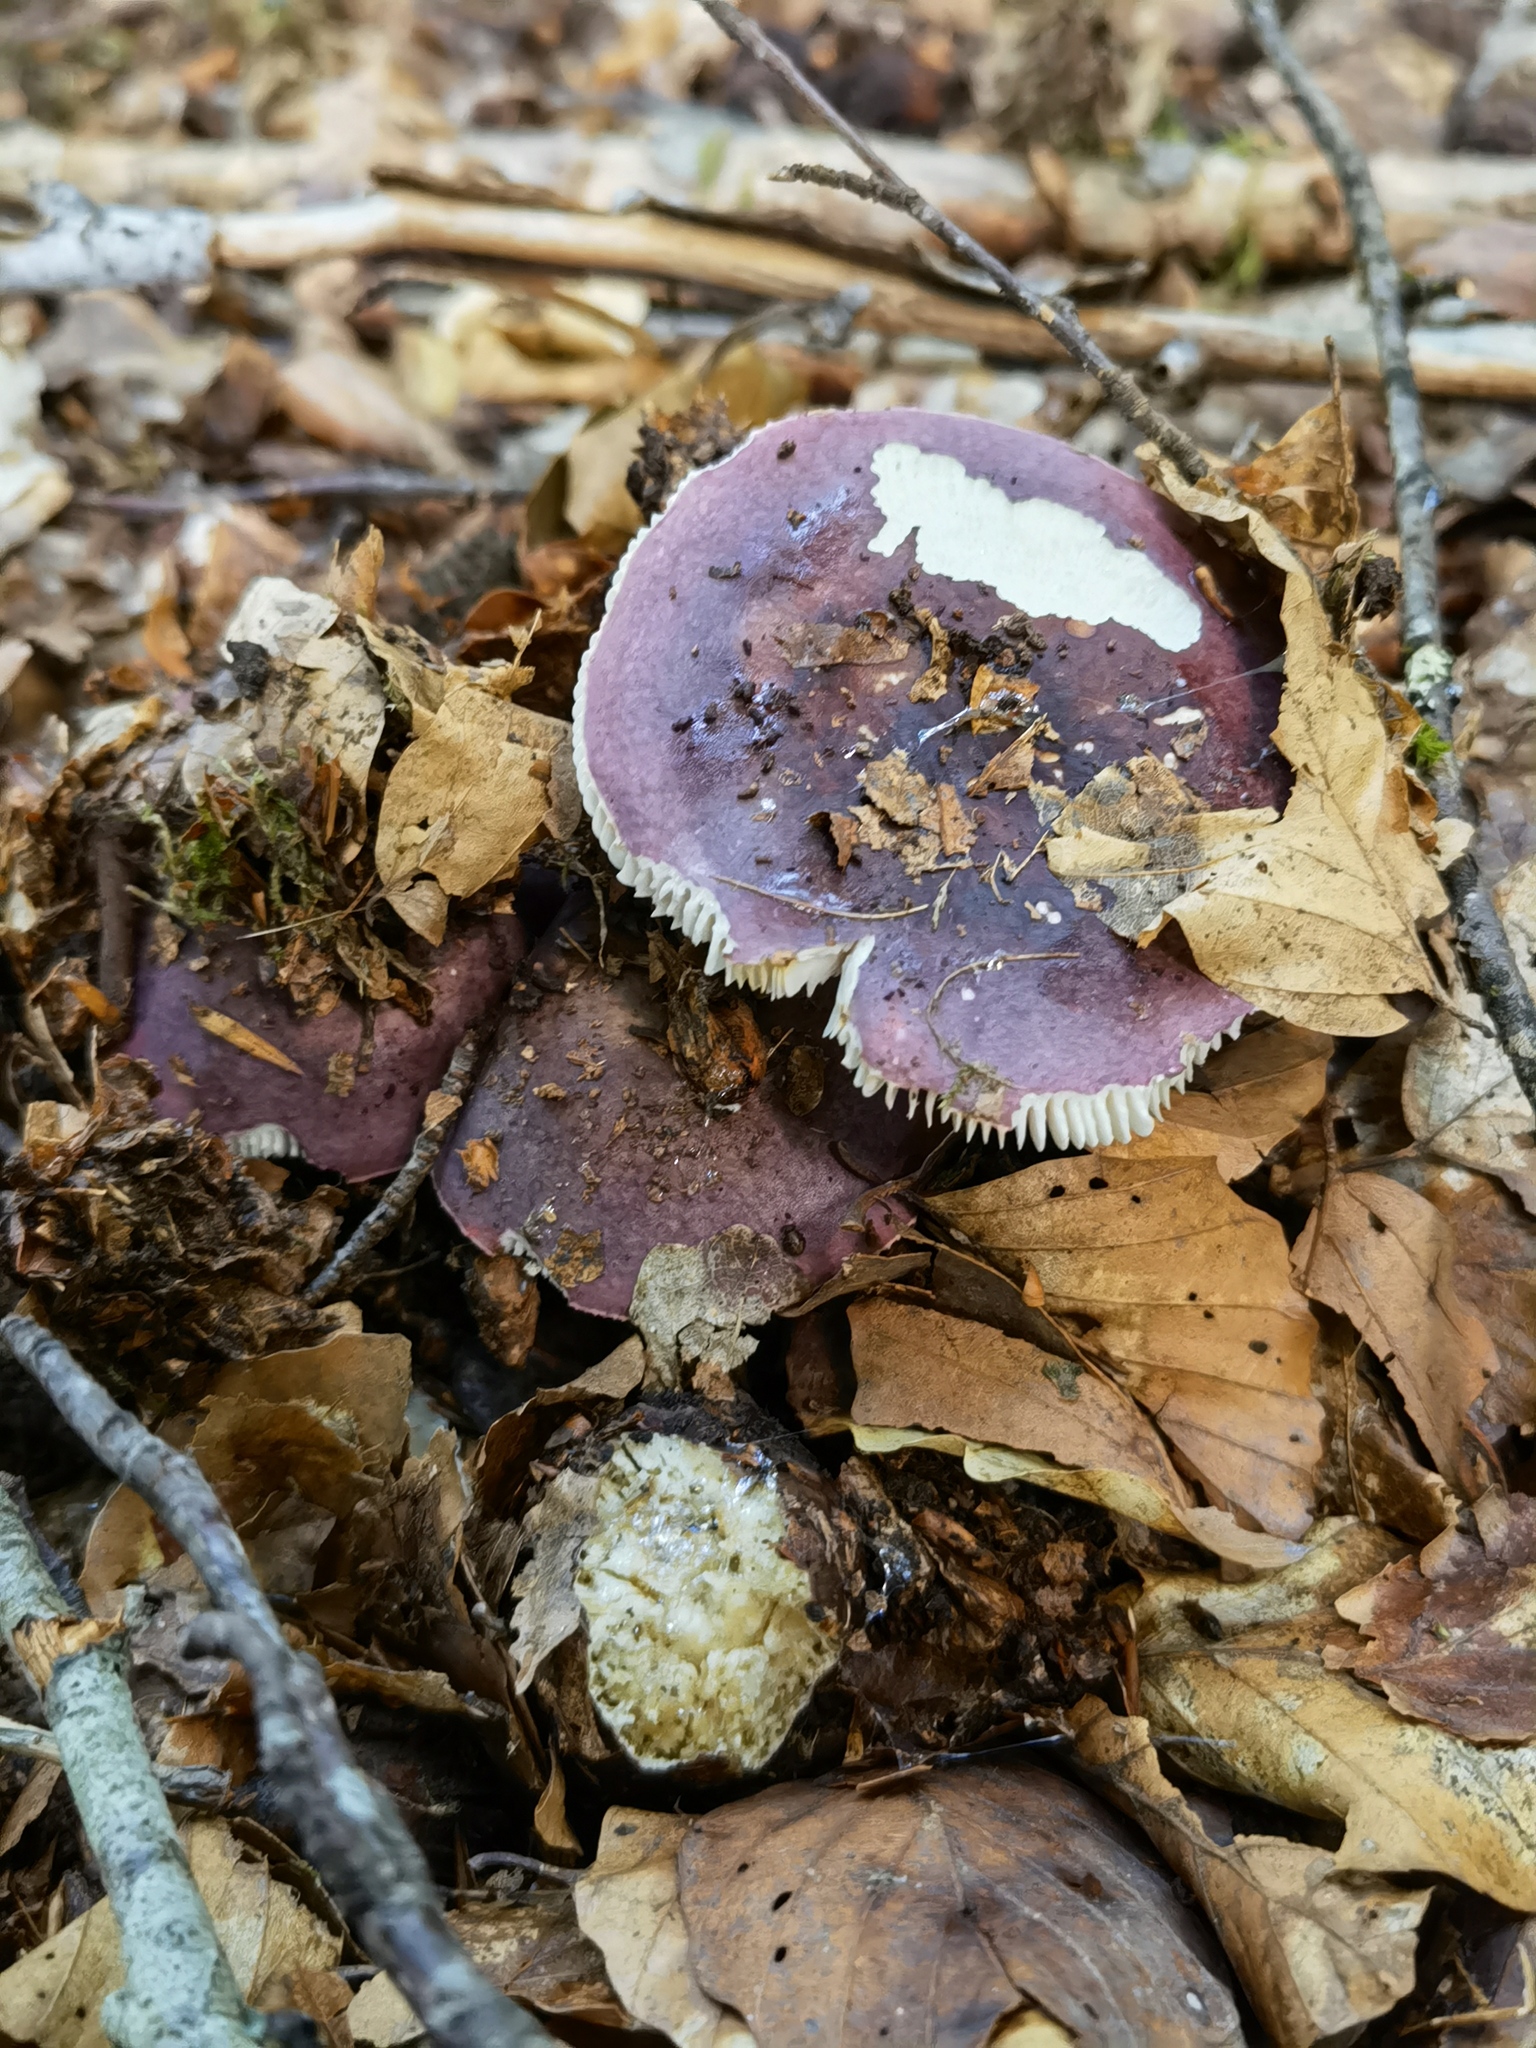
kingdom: Fungi
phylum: Basidiomycota
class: Agaricomycetes
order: Russulales
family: Russulaceae
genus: Russula
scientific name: Russula xerampelina
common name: Crab brittlegill
